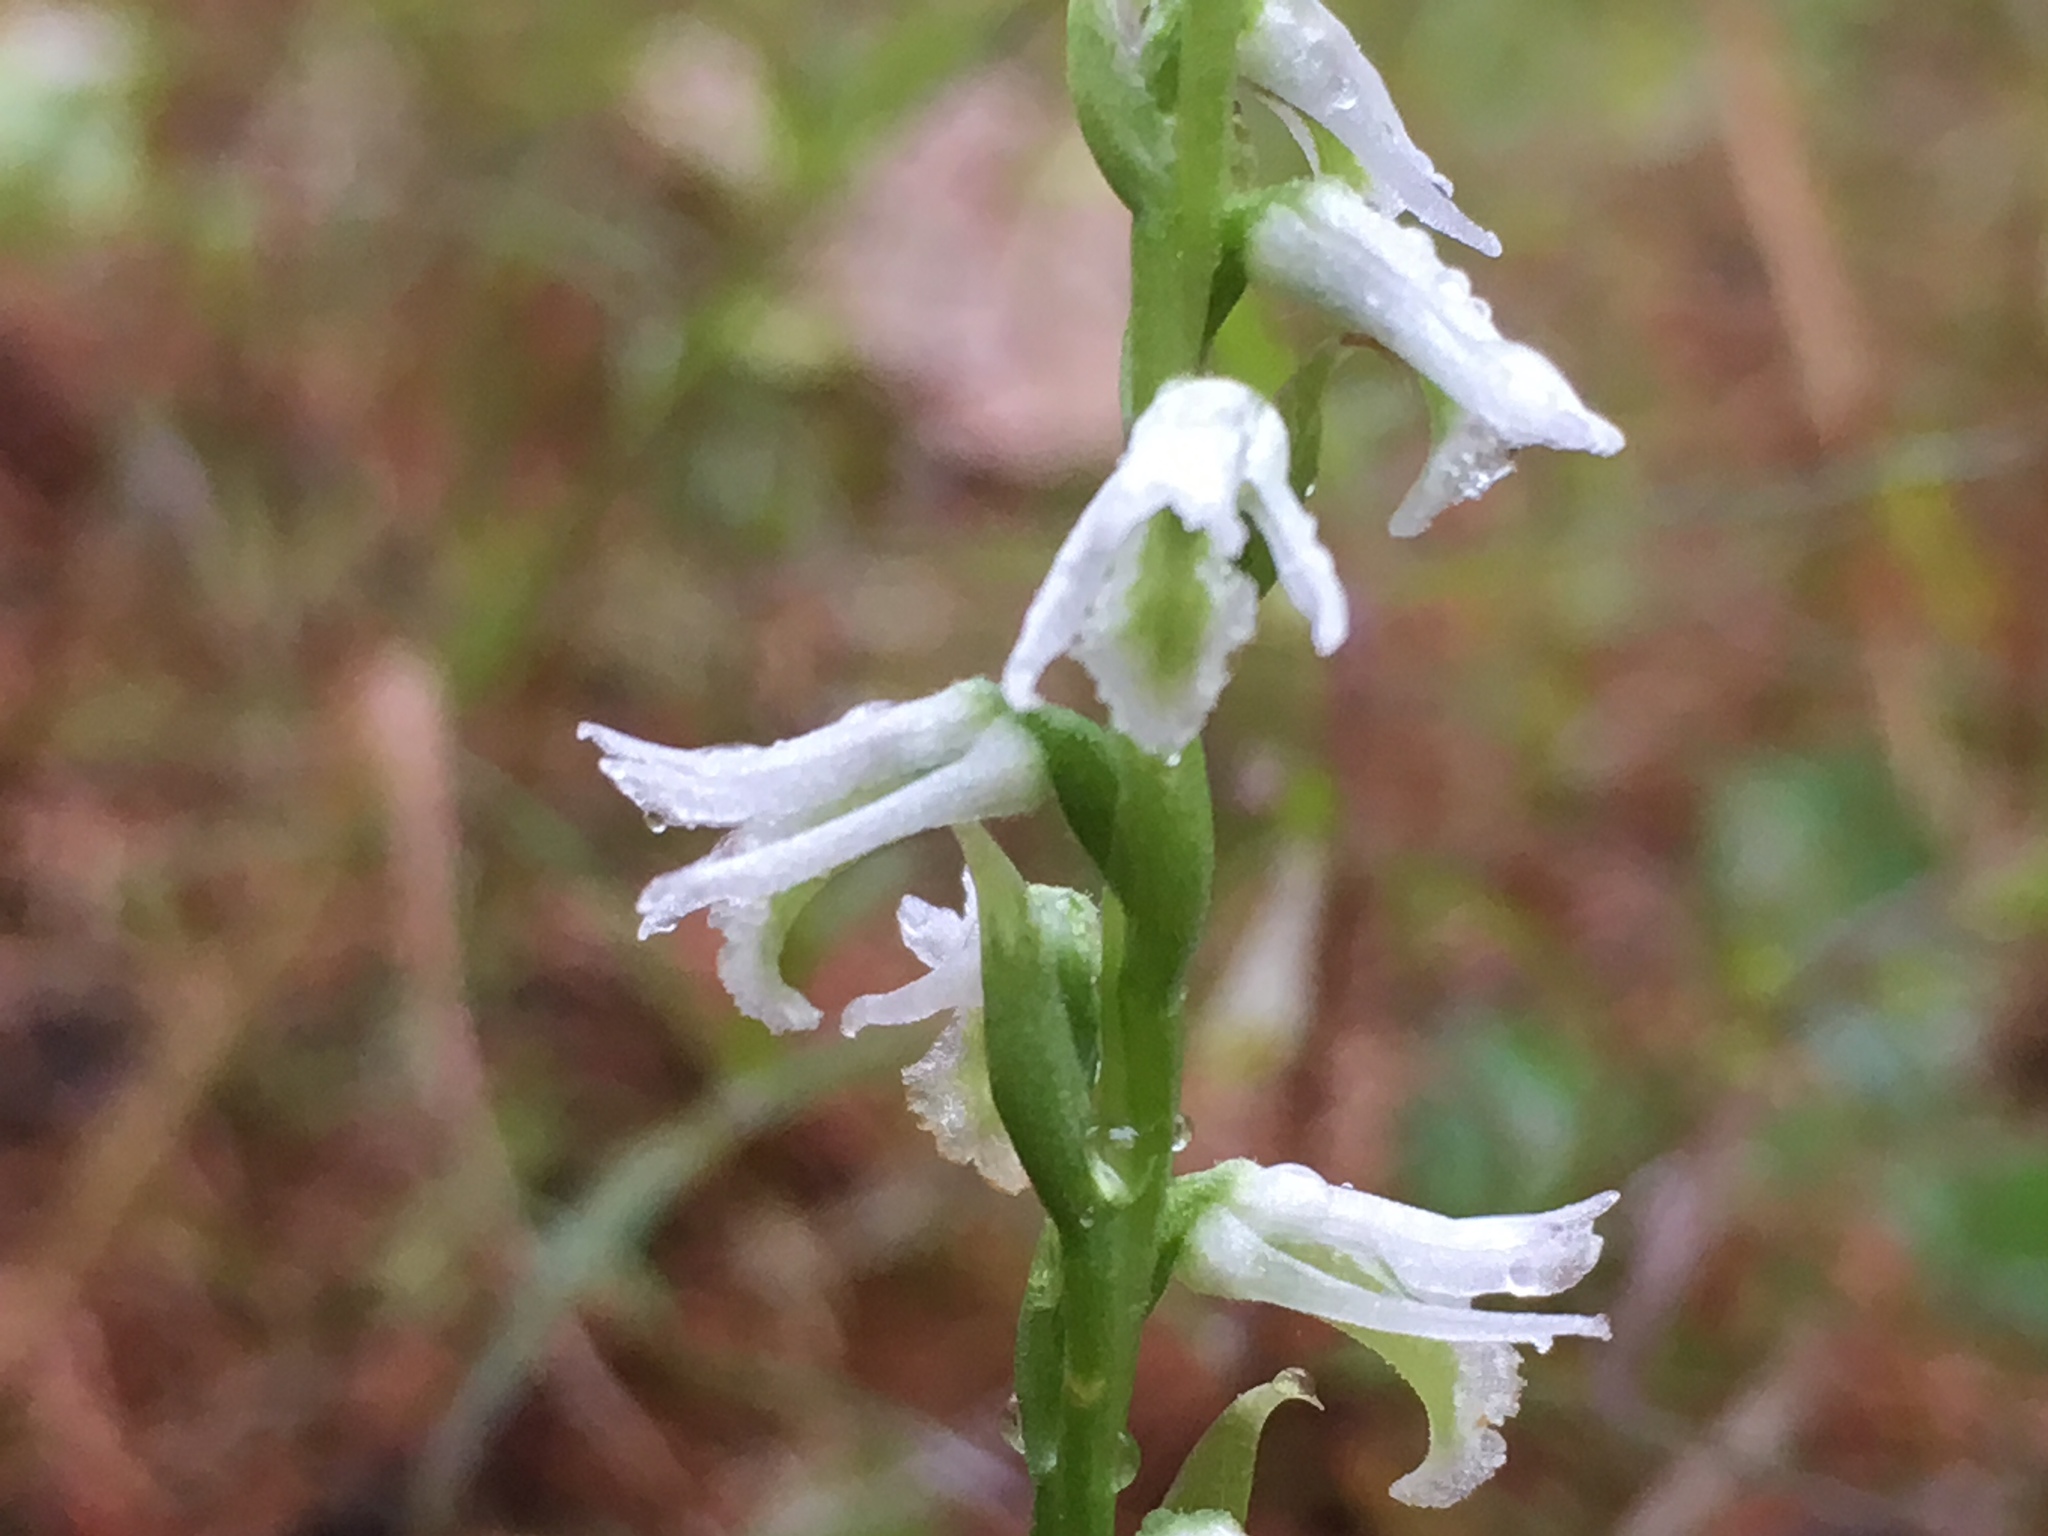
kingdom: Plantae
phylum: Tracheophyta
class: Liliopsida
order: Asparagales
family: Orchidaceae
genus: Spiranthes
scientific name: Spiranthes lacera
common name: Northern slender ladies'-tresses
